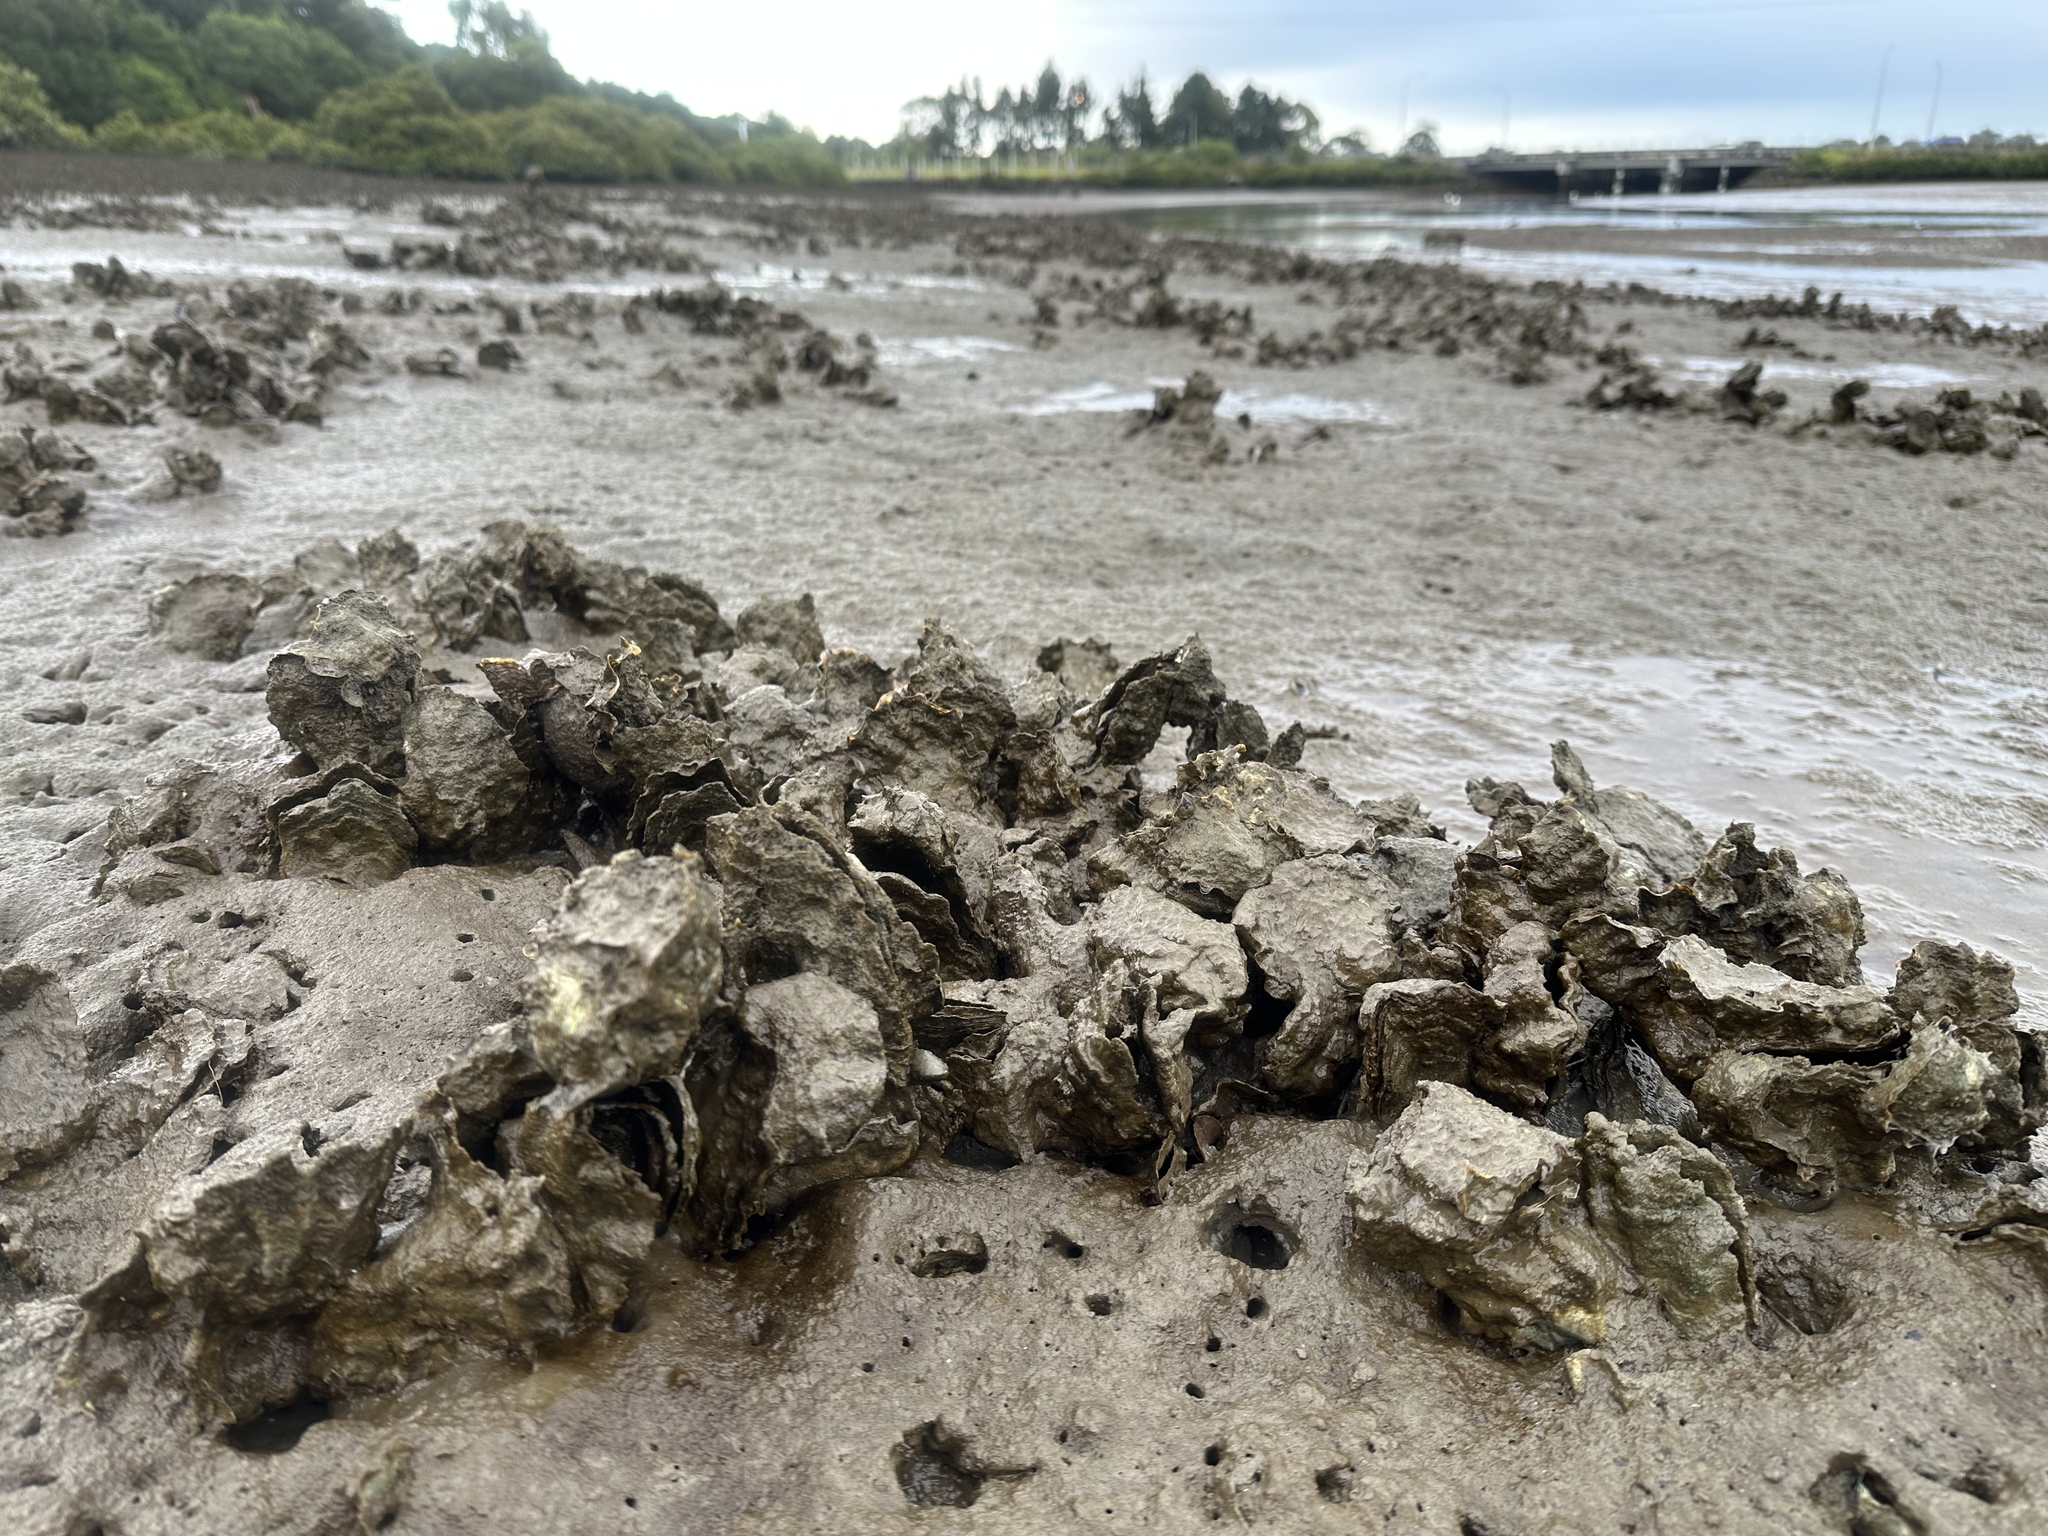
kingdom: Animalia
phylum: Mollusca
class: Bivalvia
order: Ostreida
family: Ostreidae
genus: Magallana
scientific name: Magallana gigas
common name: Pacific oyster
